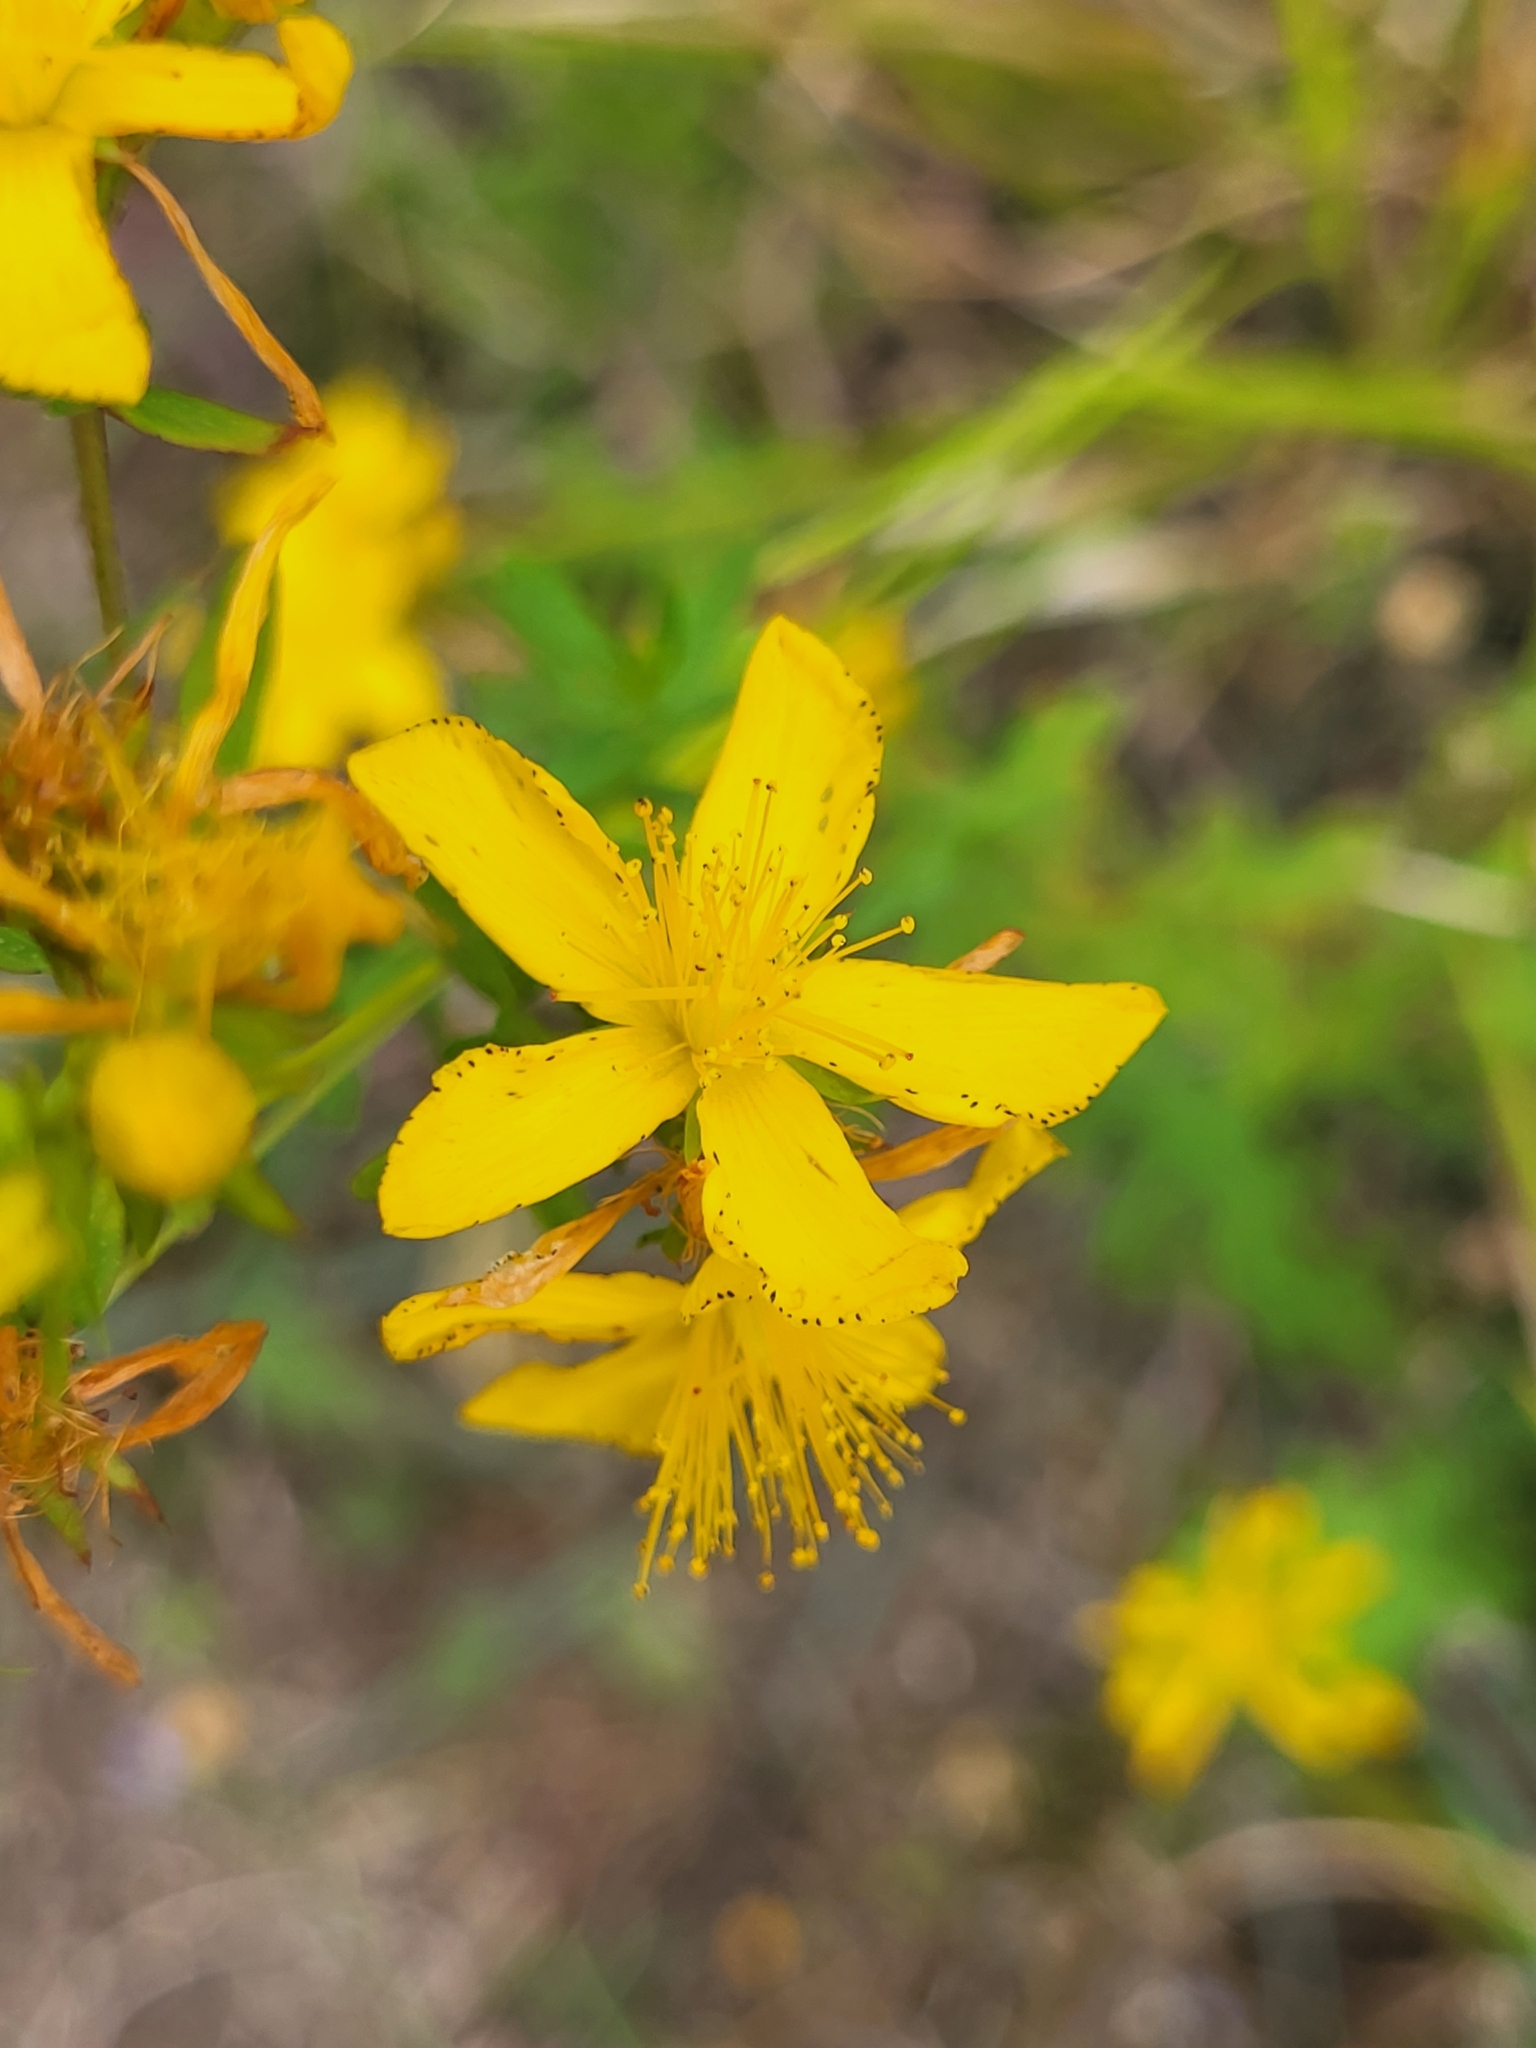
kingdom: Plantae
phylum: Tracheophyta
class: Magnoliopsida
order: Malpighiales
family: Hypericaceae
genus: Hypericum
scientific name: Hypericum perforatum
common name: Common st. johnswort
